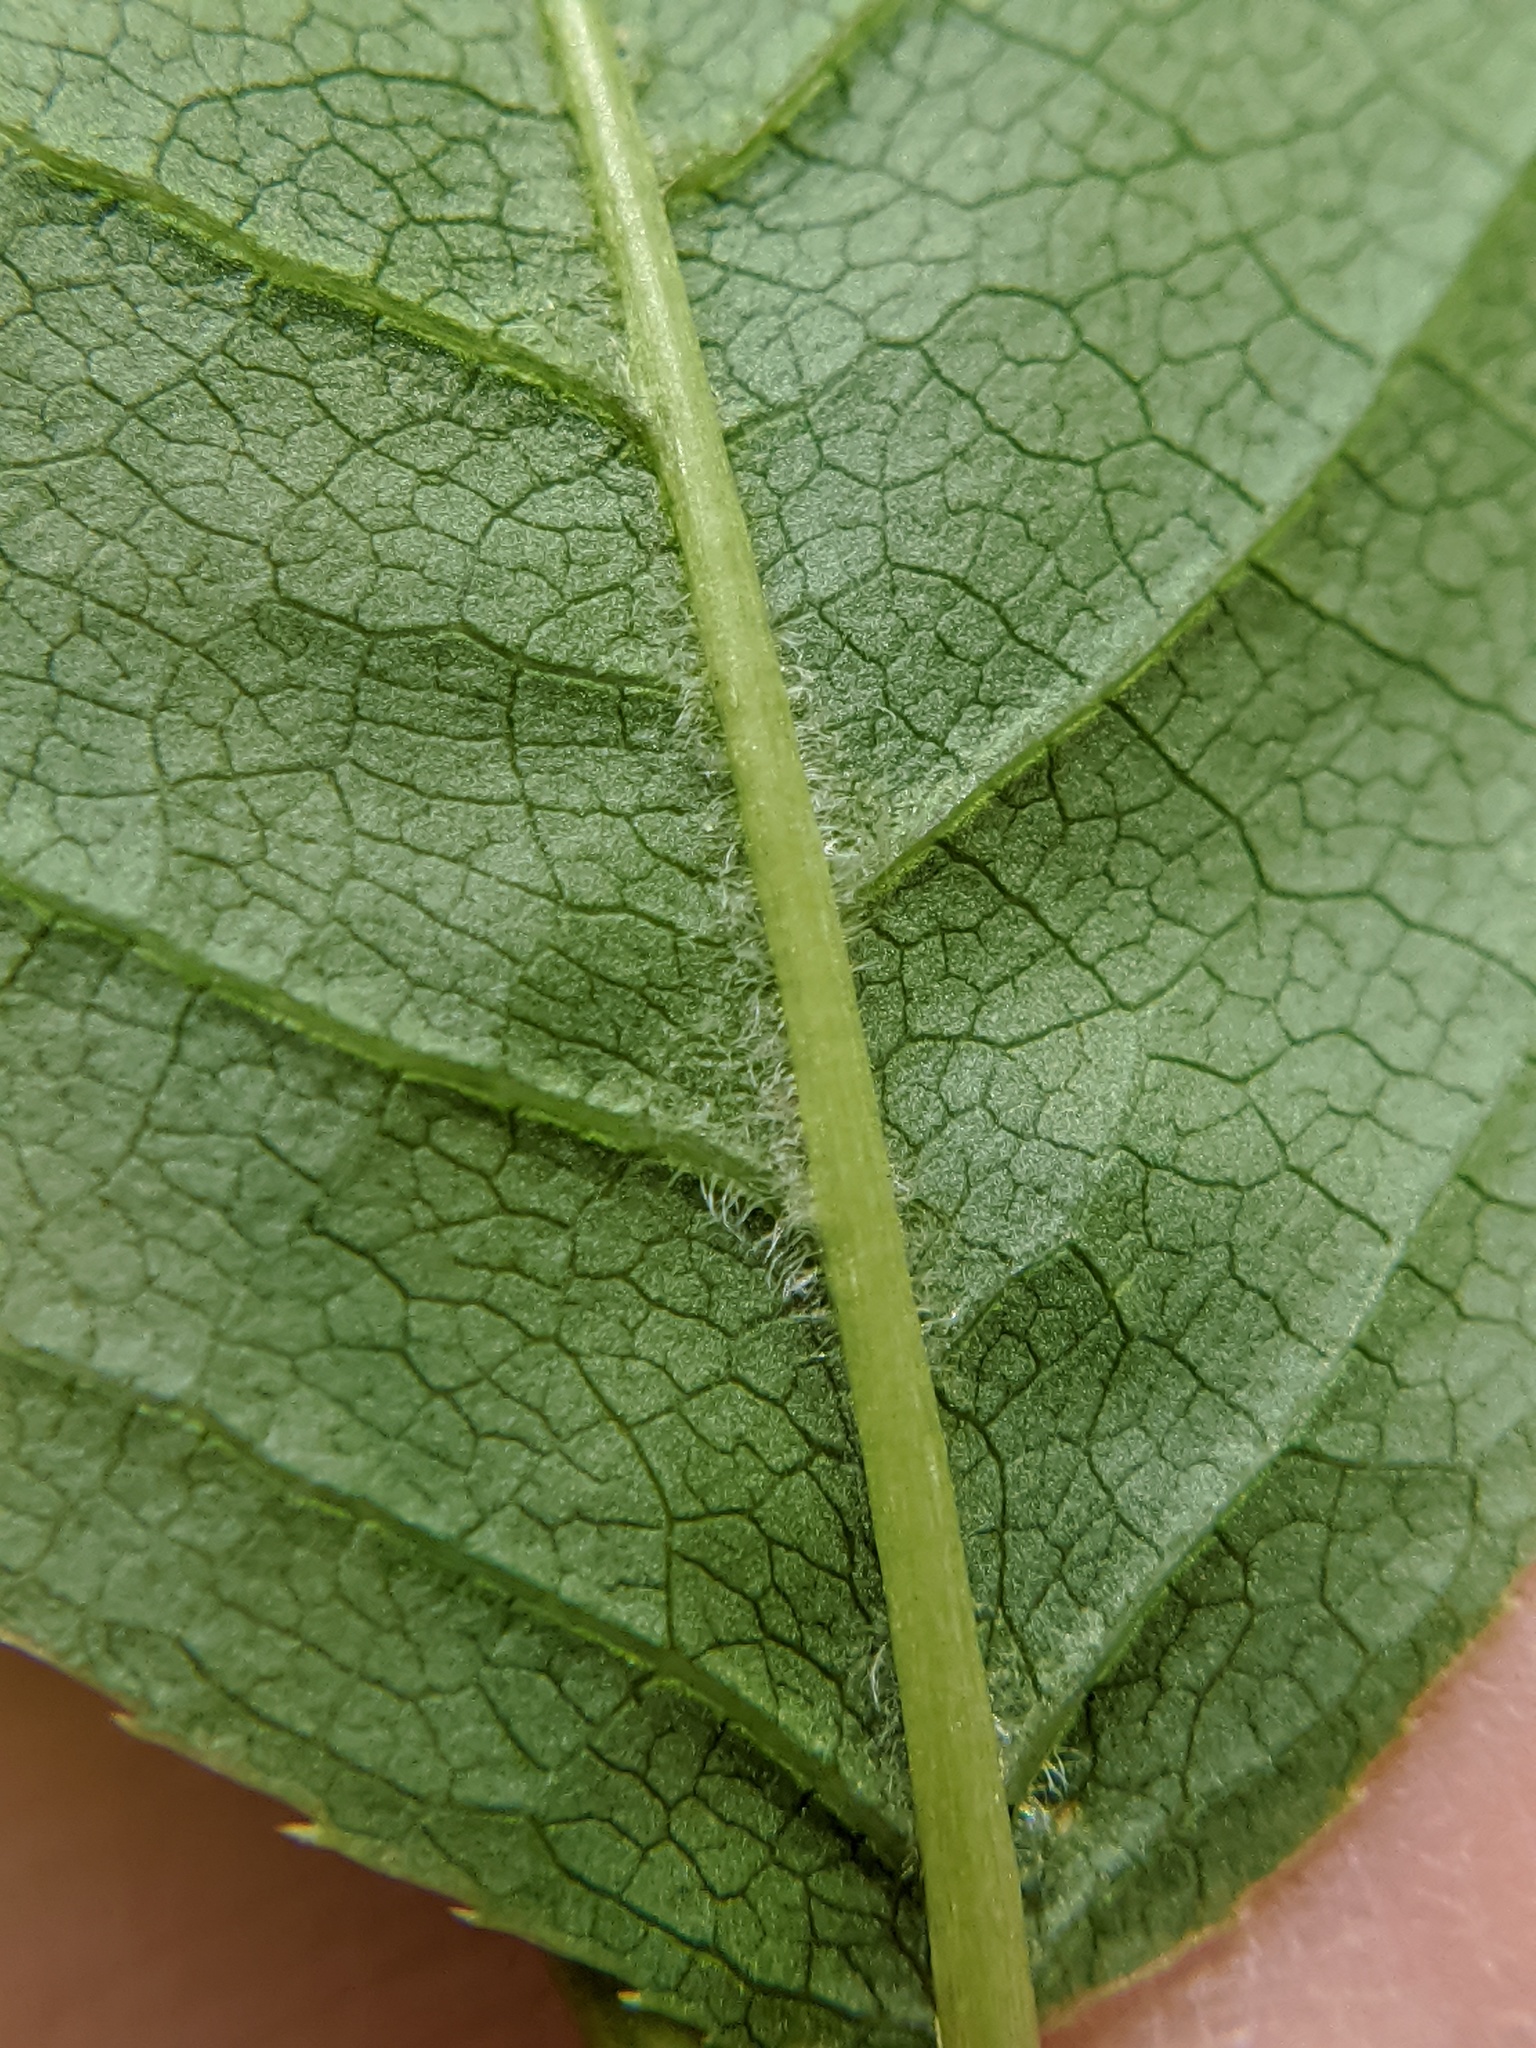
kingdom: Plantae
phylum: Tracheophyta
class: Magnoliopsida
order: Rosales
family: Rosaceae
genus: Prunus
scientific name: Prunus virginiana
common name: Chokecherry
